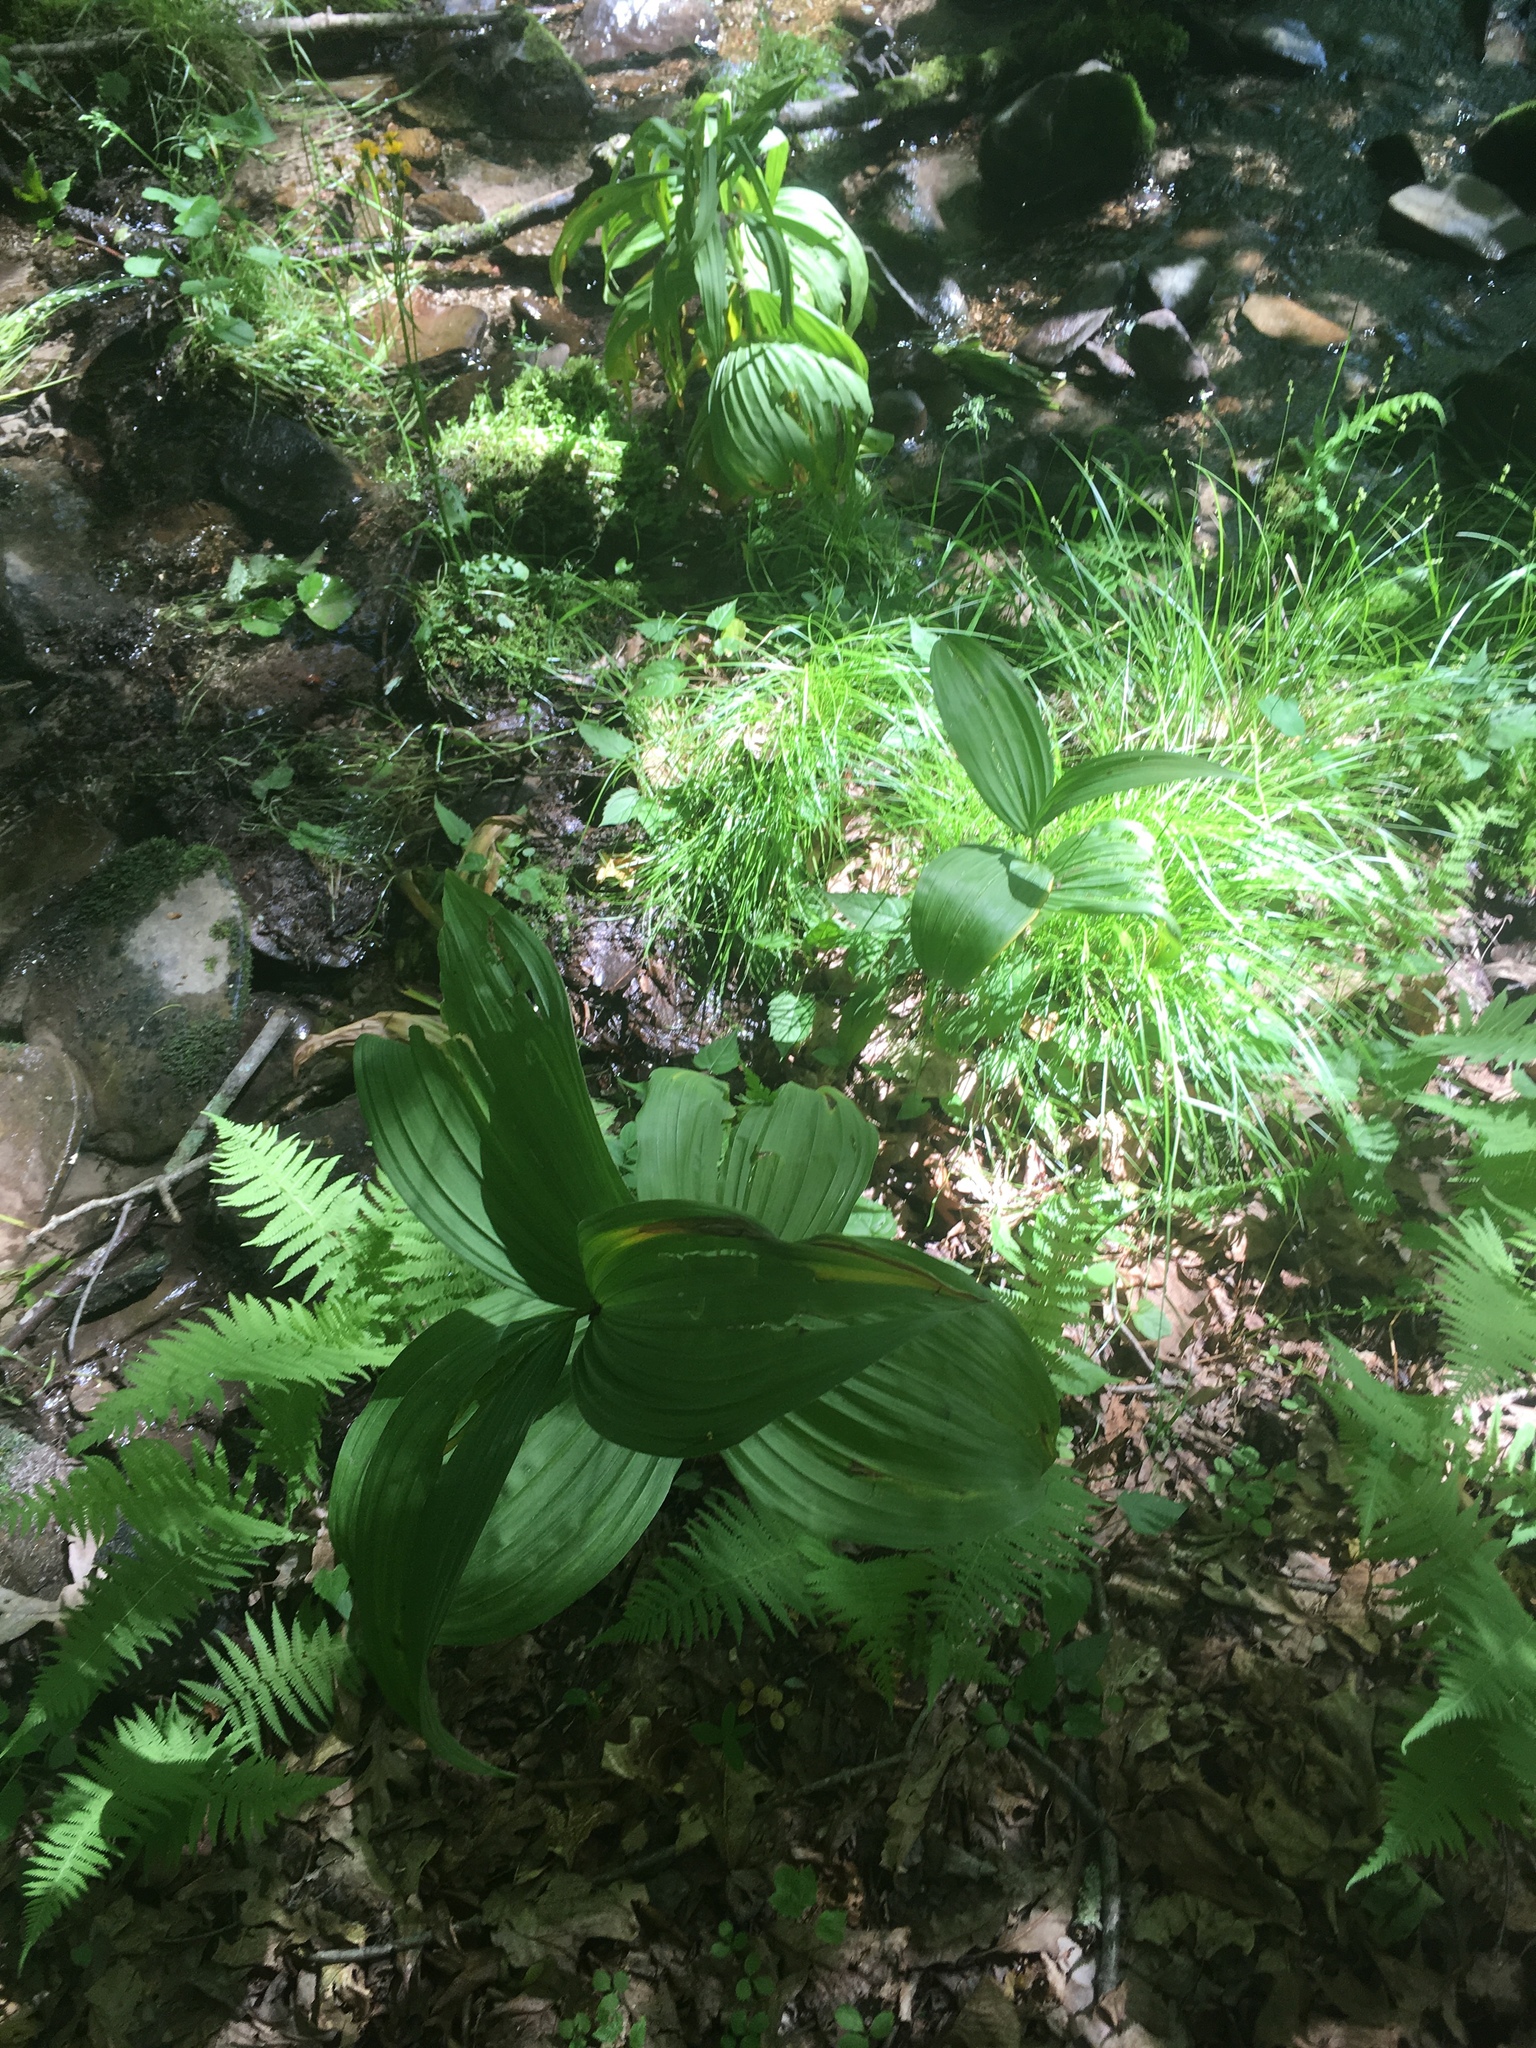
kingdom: Plantae
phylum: Tracheophyta
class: Liliopsida
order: Liliales
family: Melanthiaceae
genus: Veratrum
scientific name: Veratrum viride
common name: American false hellebore
